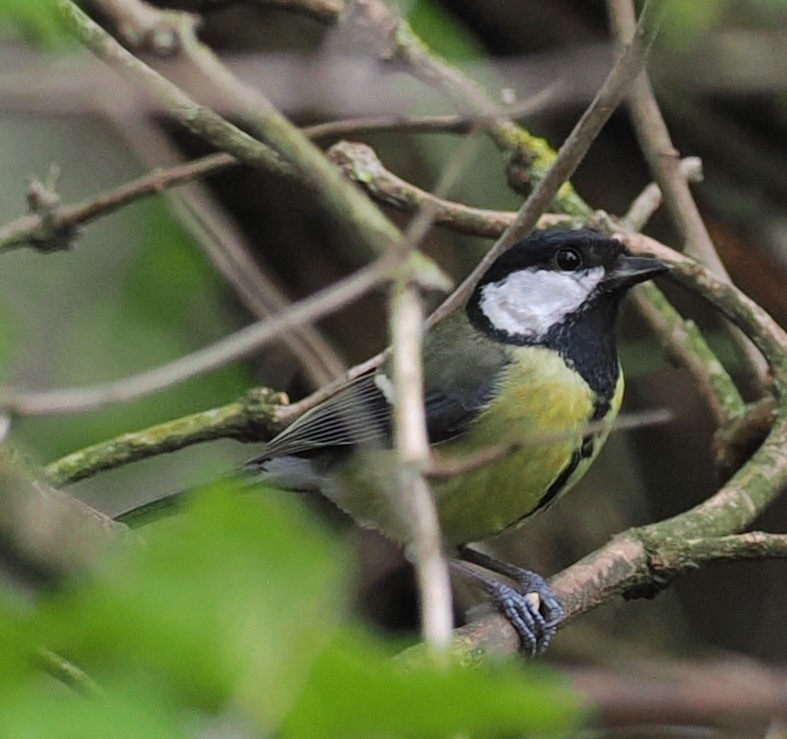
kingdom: Animalia
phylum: Chordata
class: Aves
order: Passeriformes
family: Paridae
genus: Parus
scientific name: Parus major
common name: Great tit
